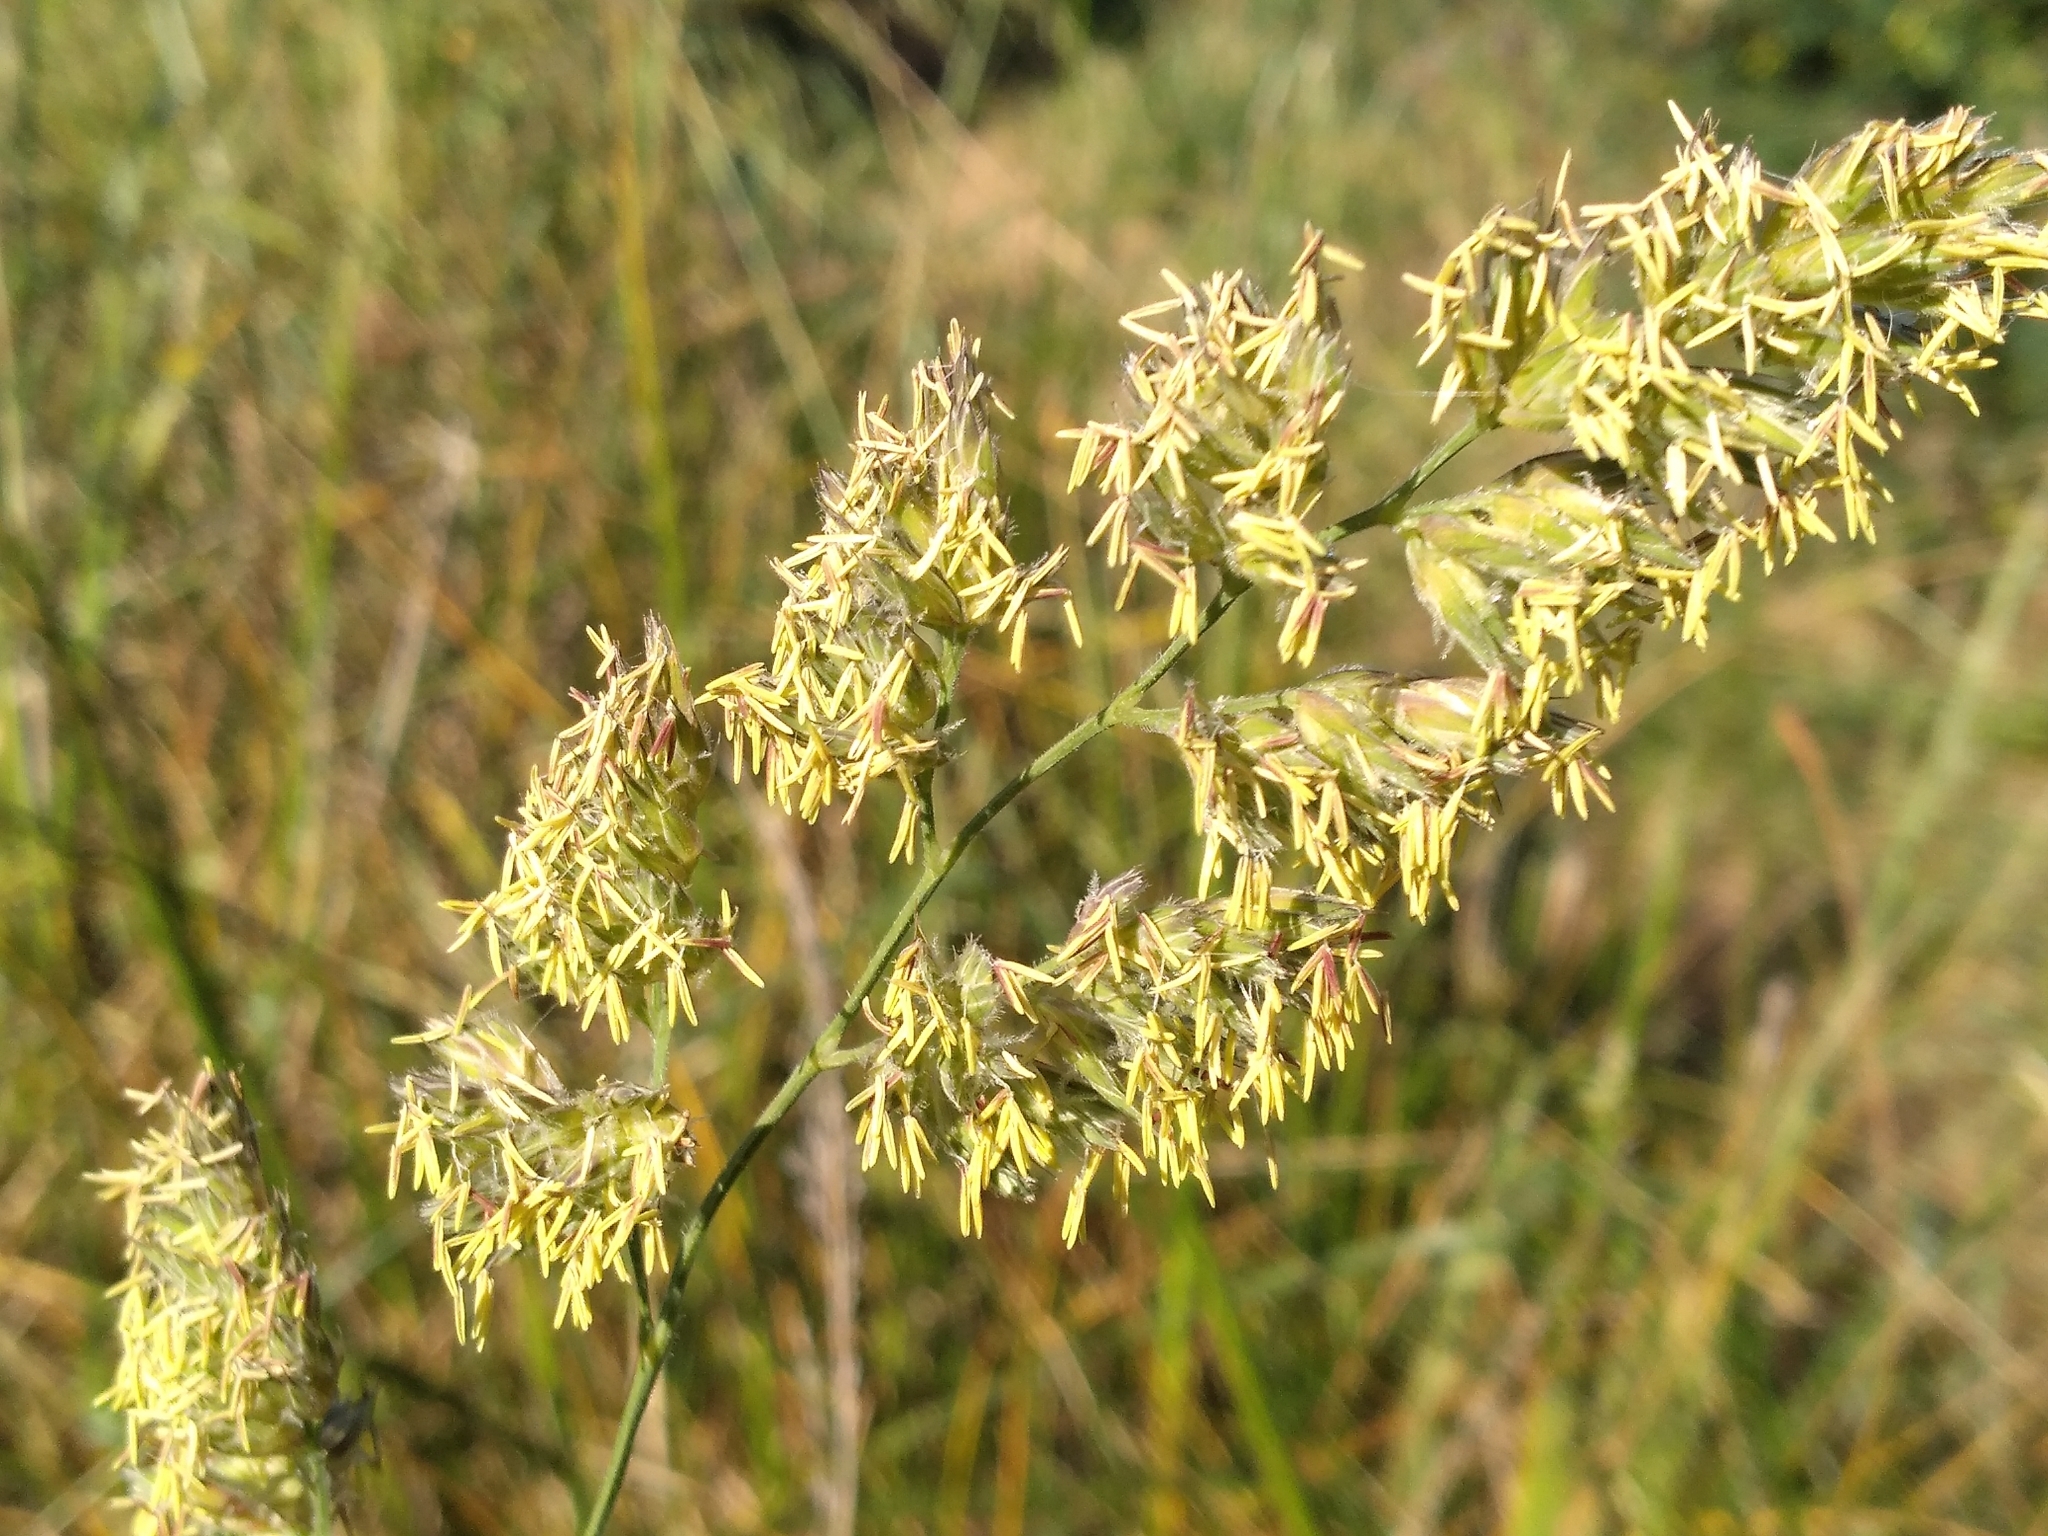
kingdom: Plantae
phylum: Tracheophyta
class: Liliopsida
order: Poales
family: Poaceae
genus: Dactylis
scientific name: Dactylis glomerata
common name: Orchardgrass
